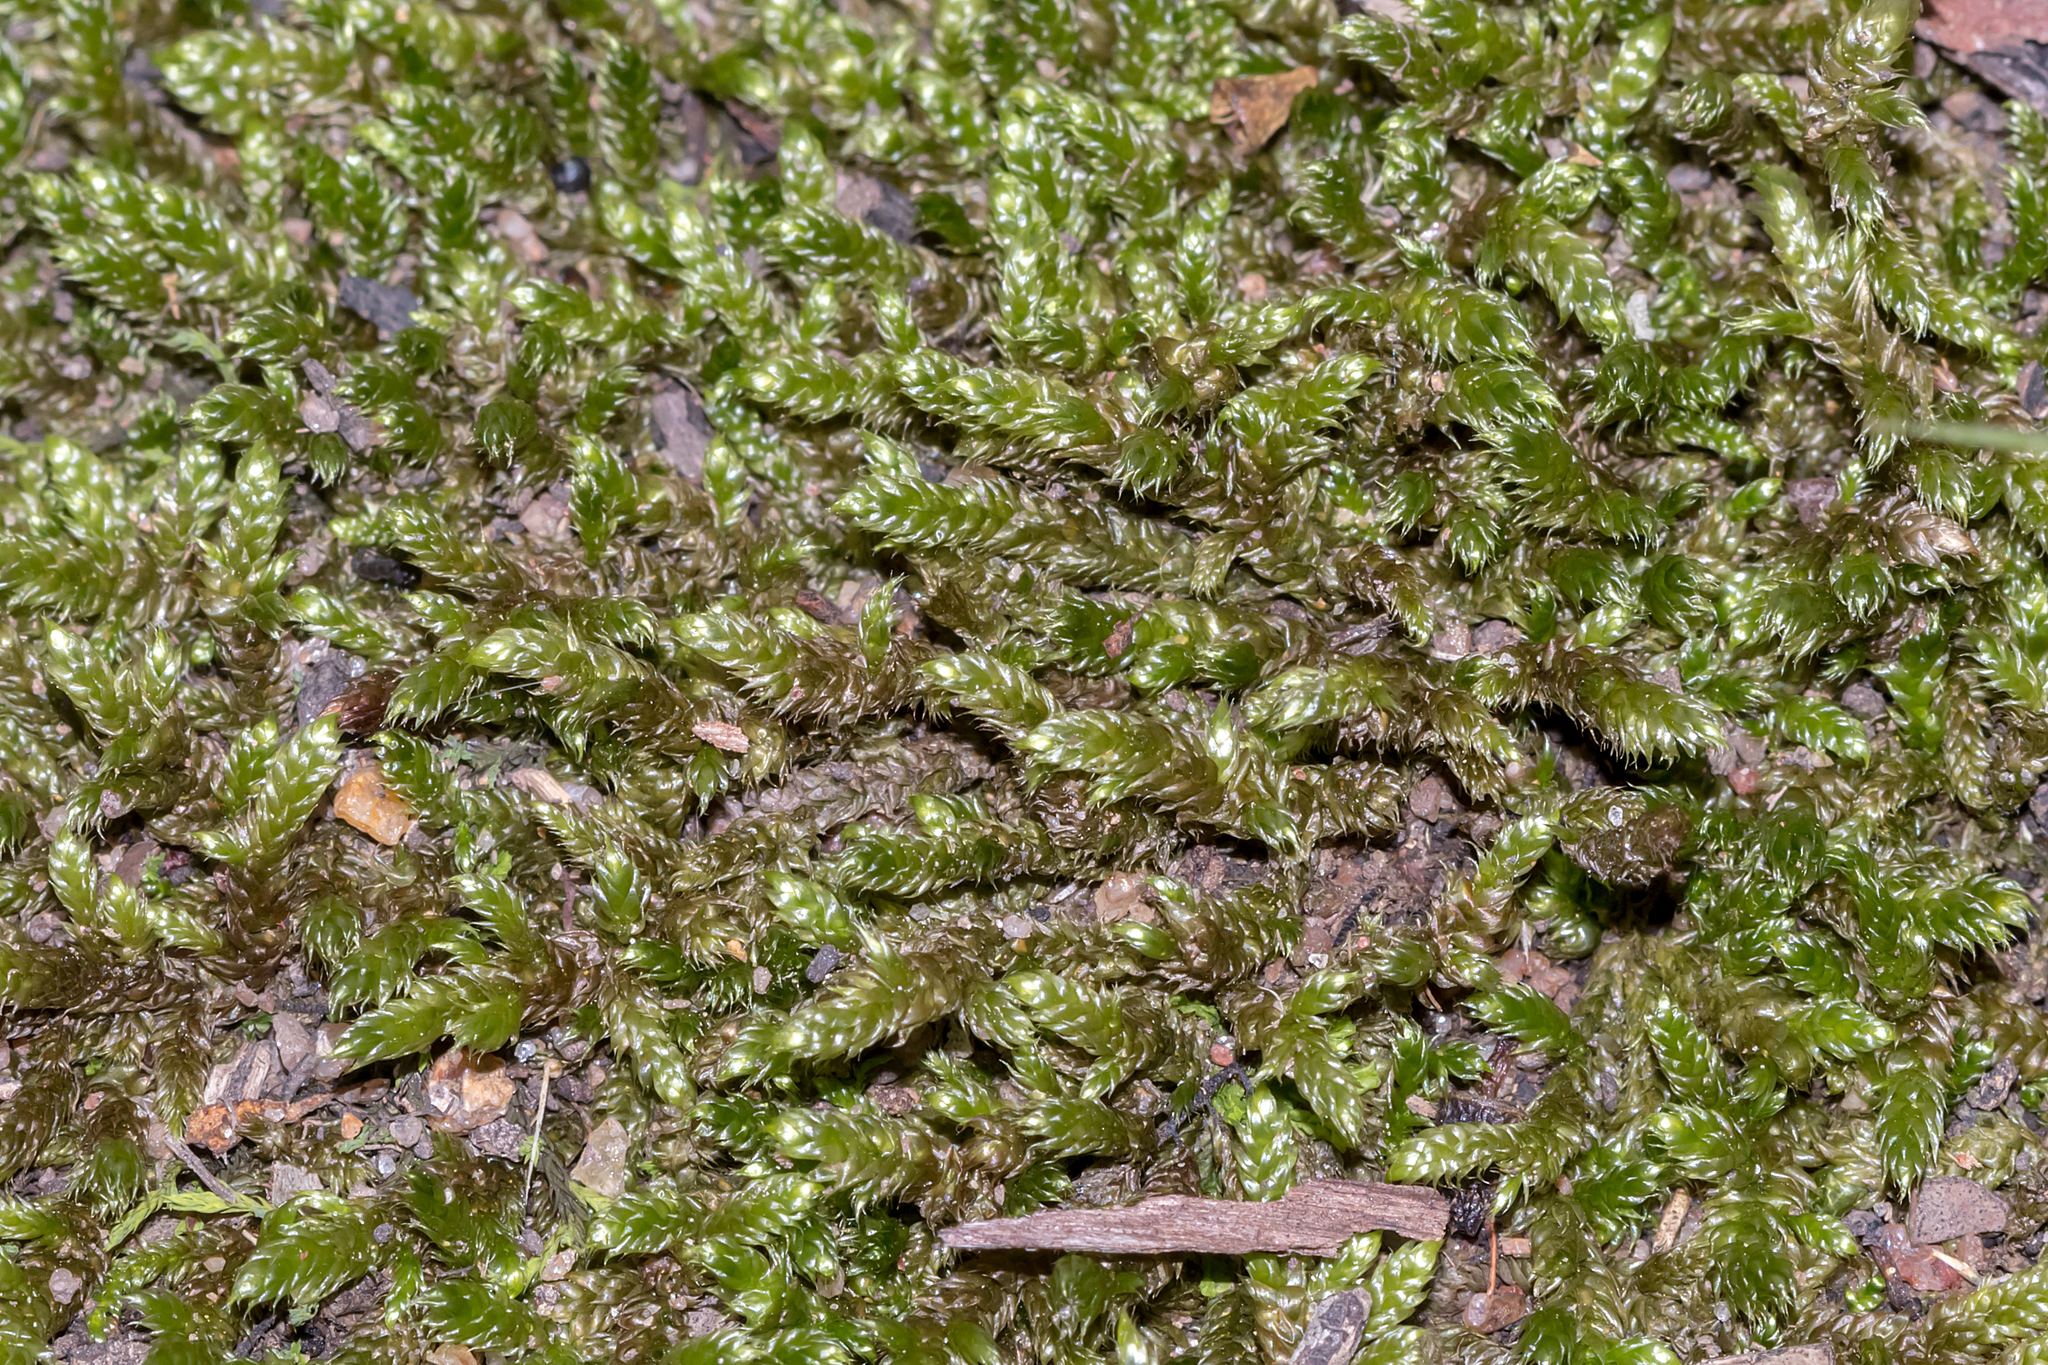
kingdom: Plantae
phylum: Bryophyta
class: Bryopsida
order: Hypnales
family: Hypnaceae
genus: Hypnum
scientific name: Hypnum cupressiforme
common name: Cypress-leaved plait-moss
